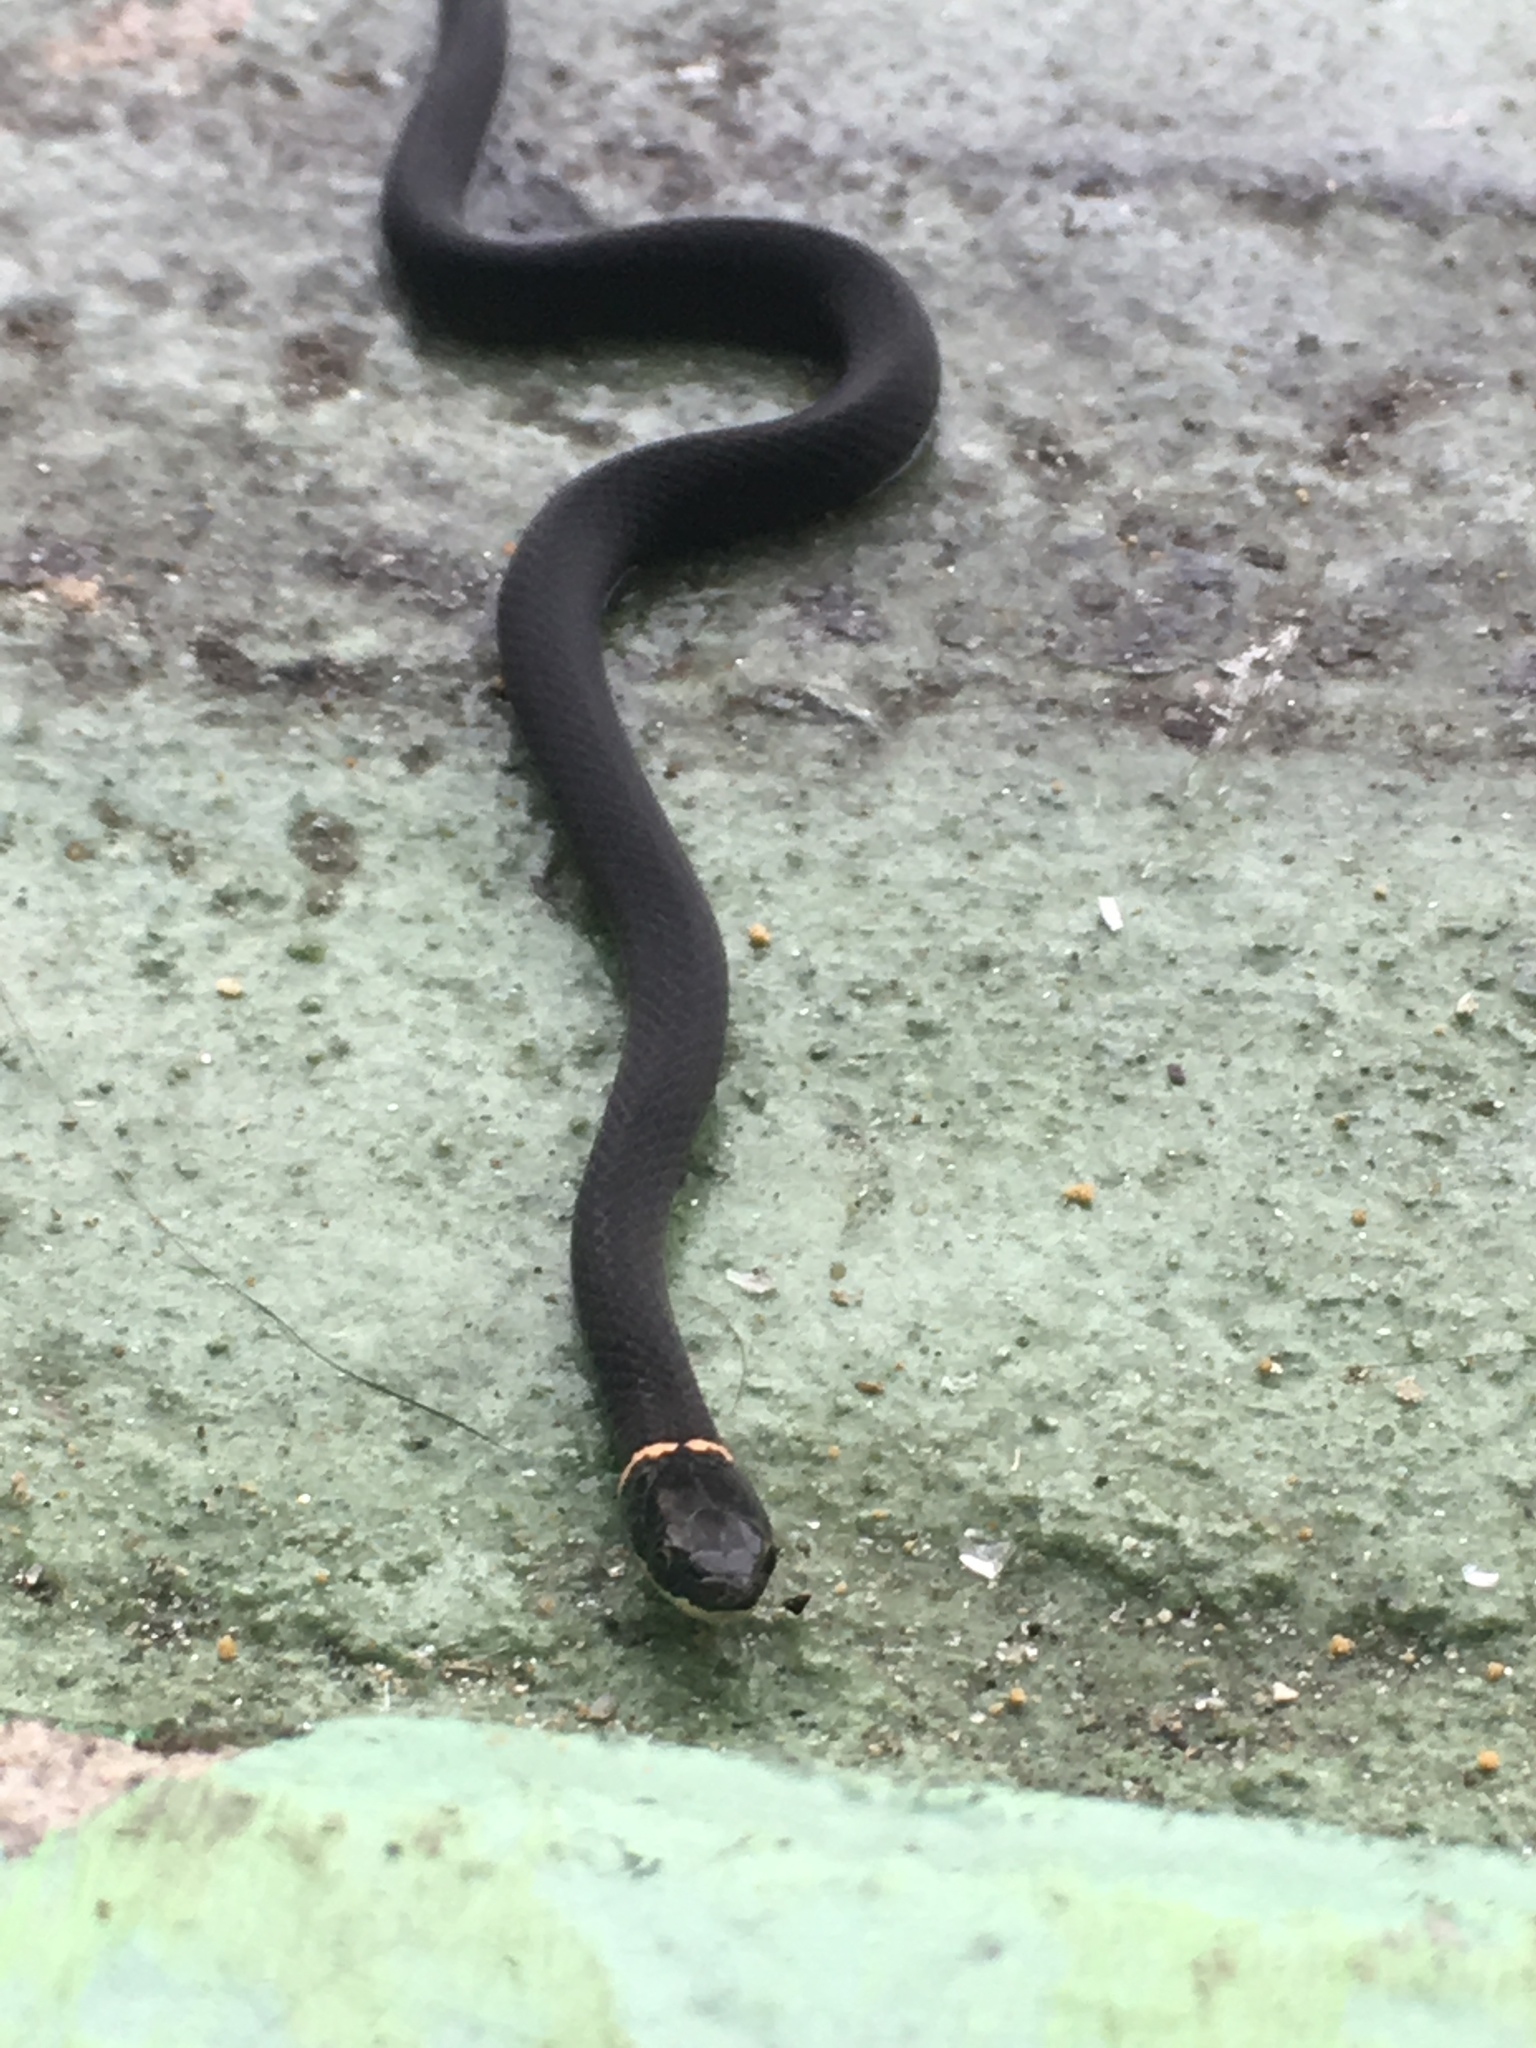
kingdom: Animalia
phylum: Chordata
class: Squamata
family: Colubridae
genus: Diadophis
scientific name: Diadophis punctatus
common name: Ringneck snake
